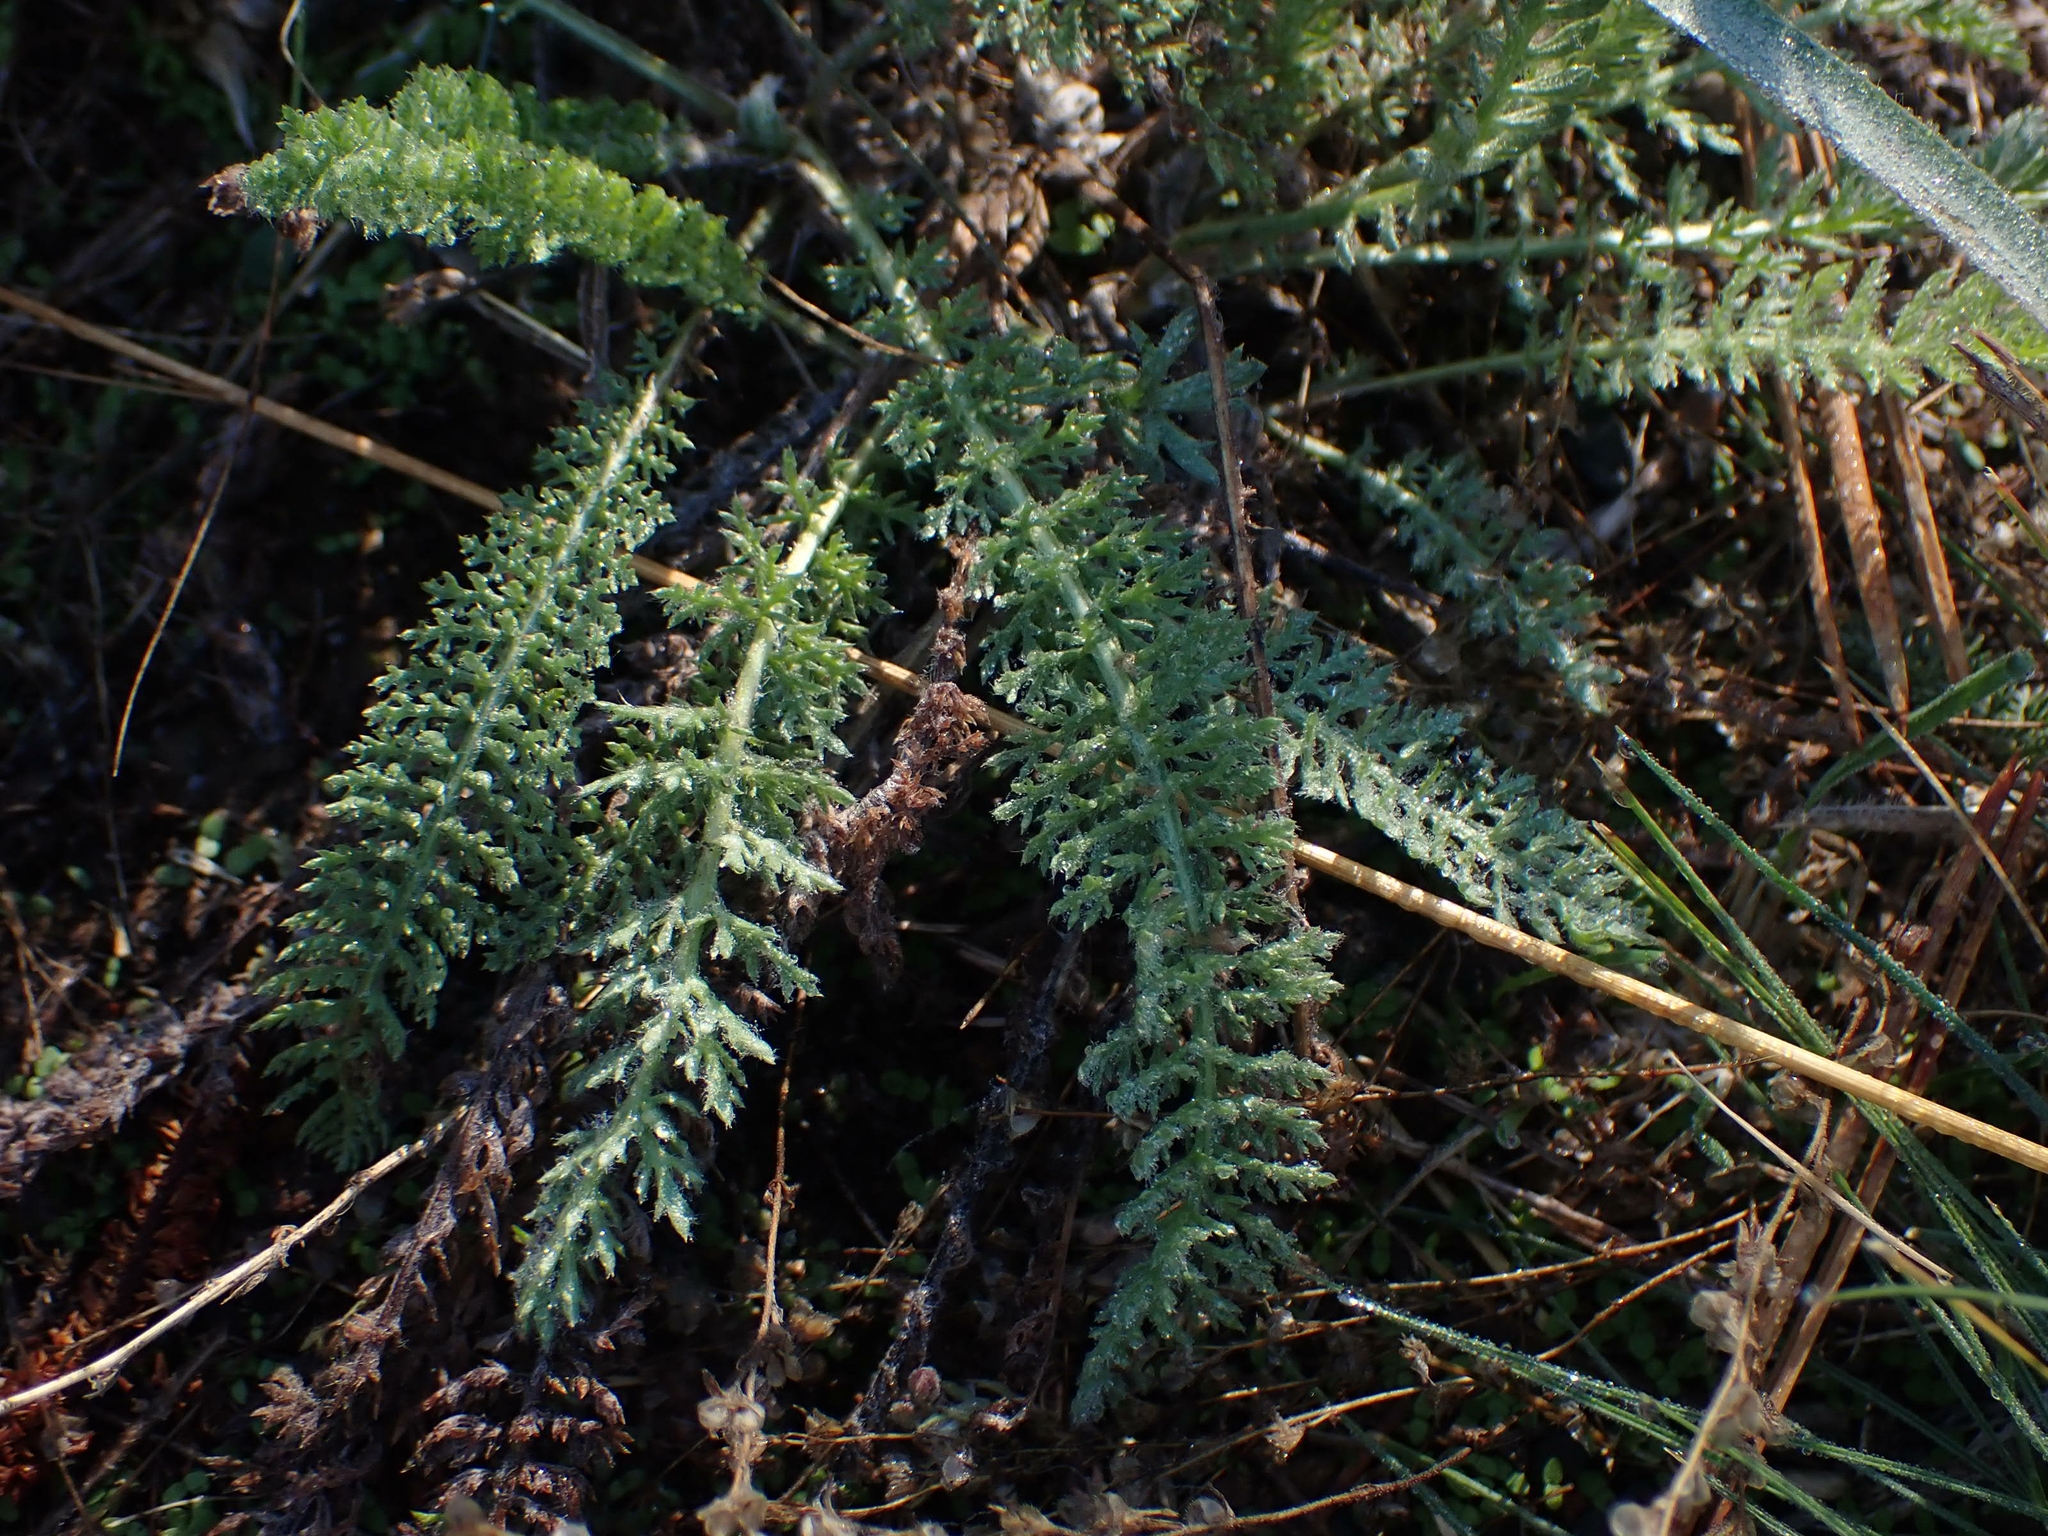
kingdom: Plantae
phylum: Tracheophyta
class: Magnoliopsida
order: Asterales
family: Asteraceae
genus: Achillea
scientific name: Achillea millefolium
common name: Yarrow
